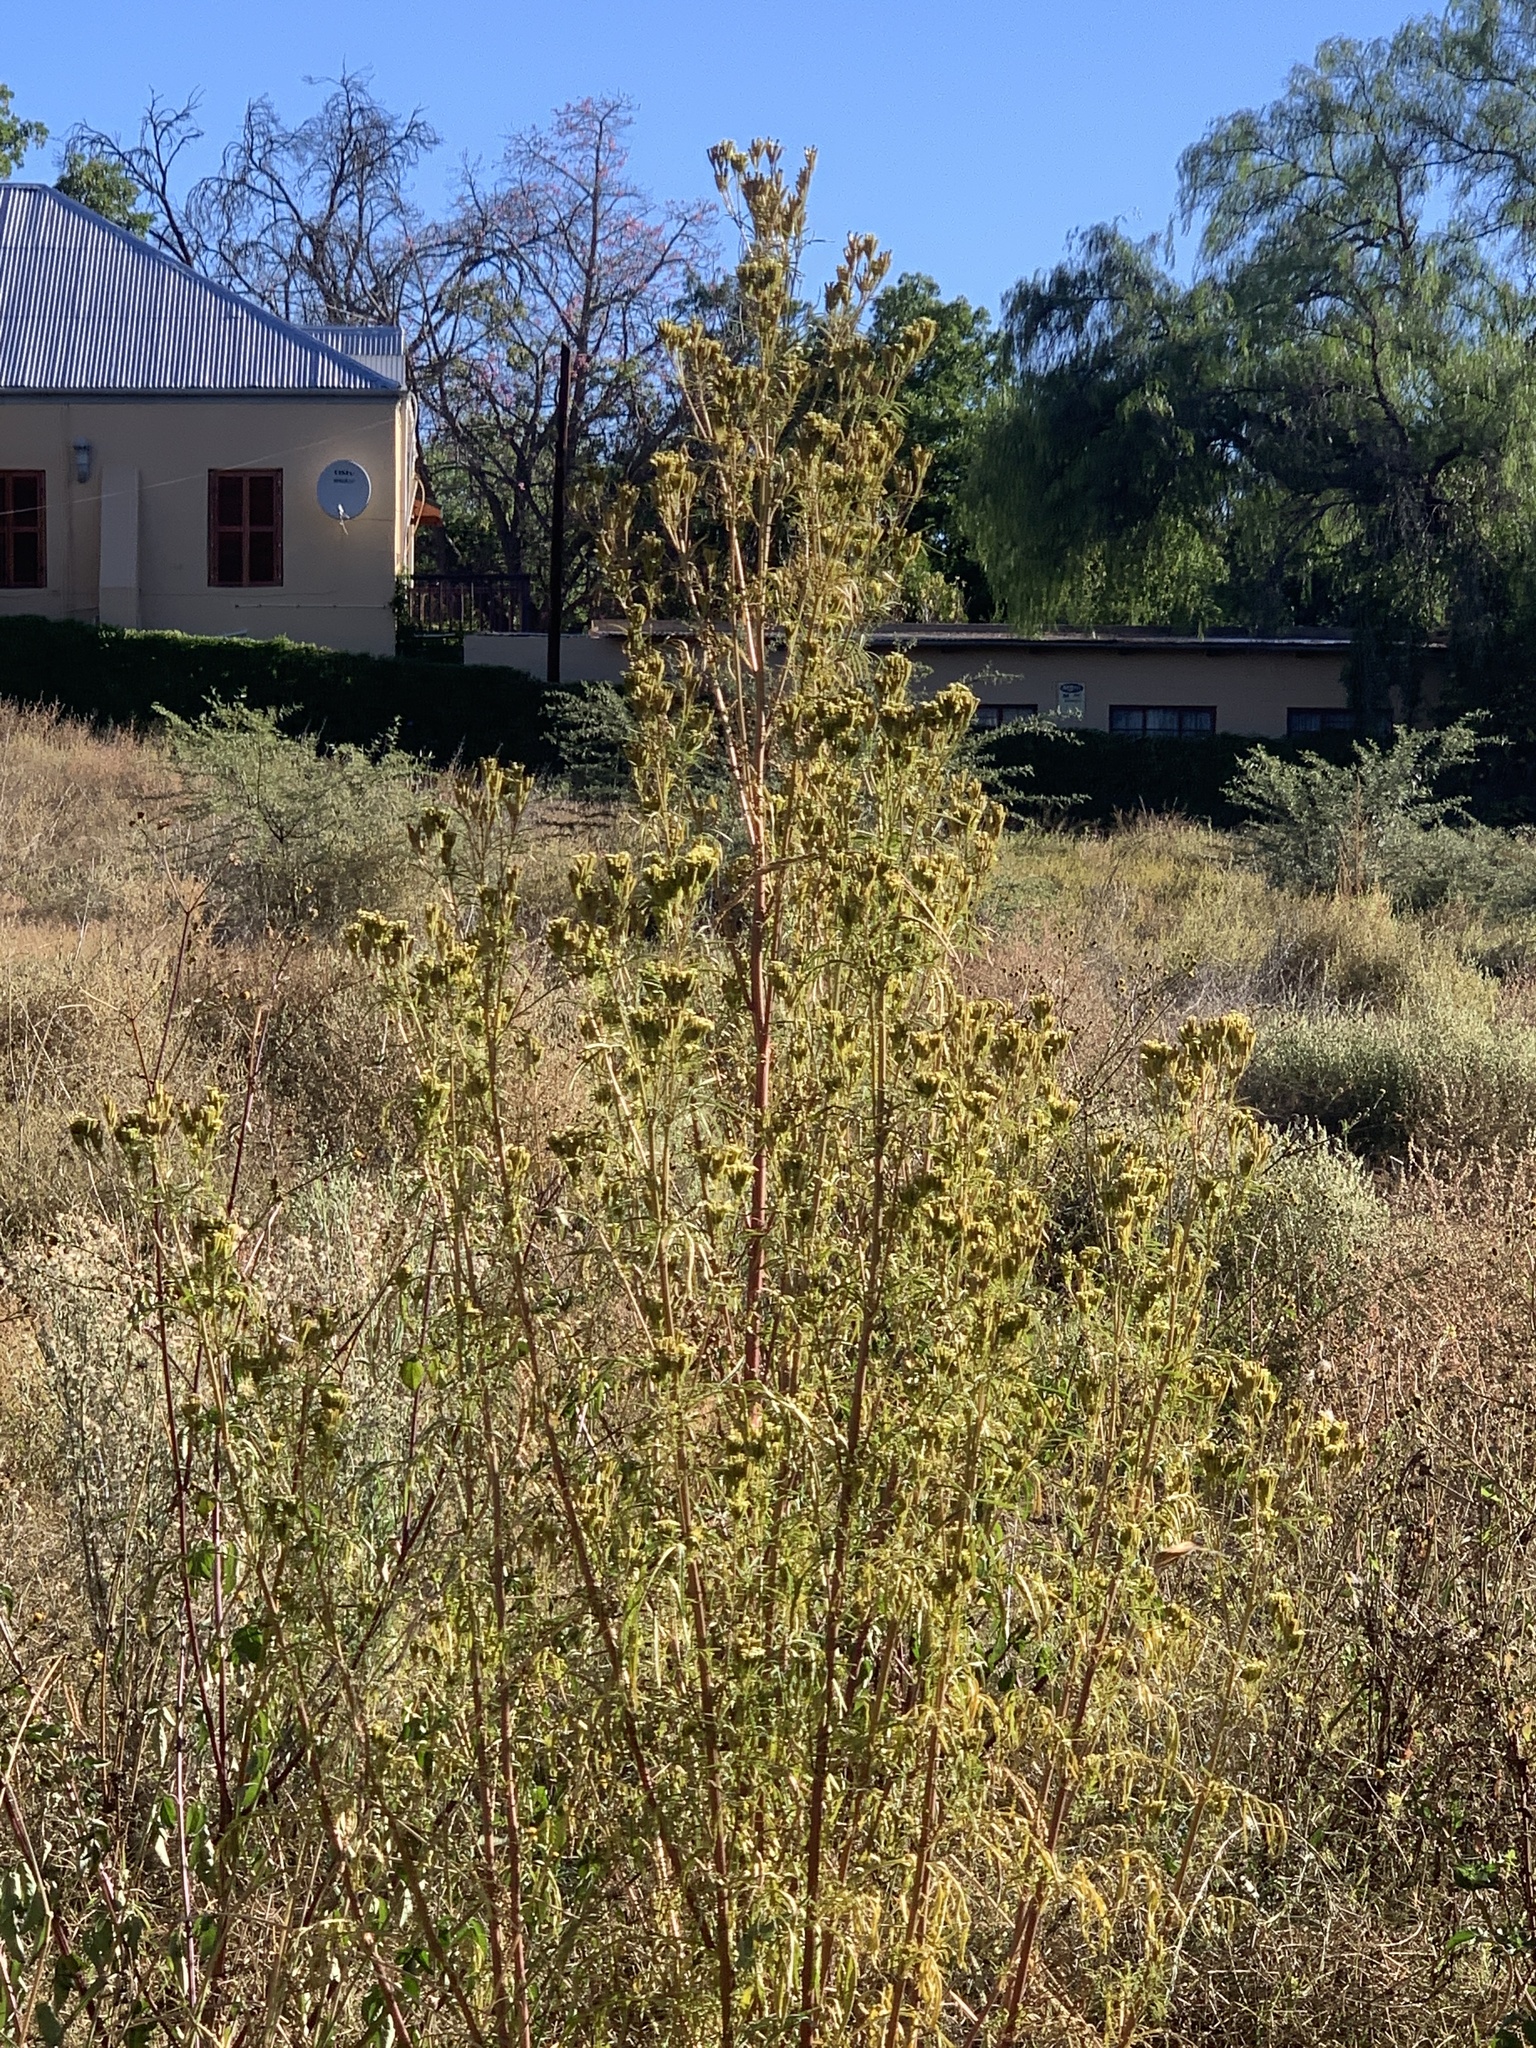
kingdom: Plantae
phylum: Tracheophyta
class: Magnoliopsida
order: Asterales
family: Asteraceae
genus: Tagetes
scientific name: Tagetes minuta
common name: Muster john henry
